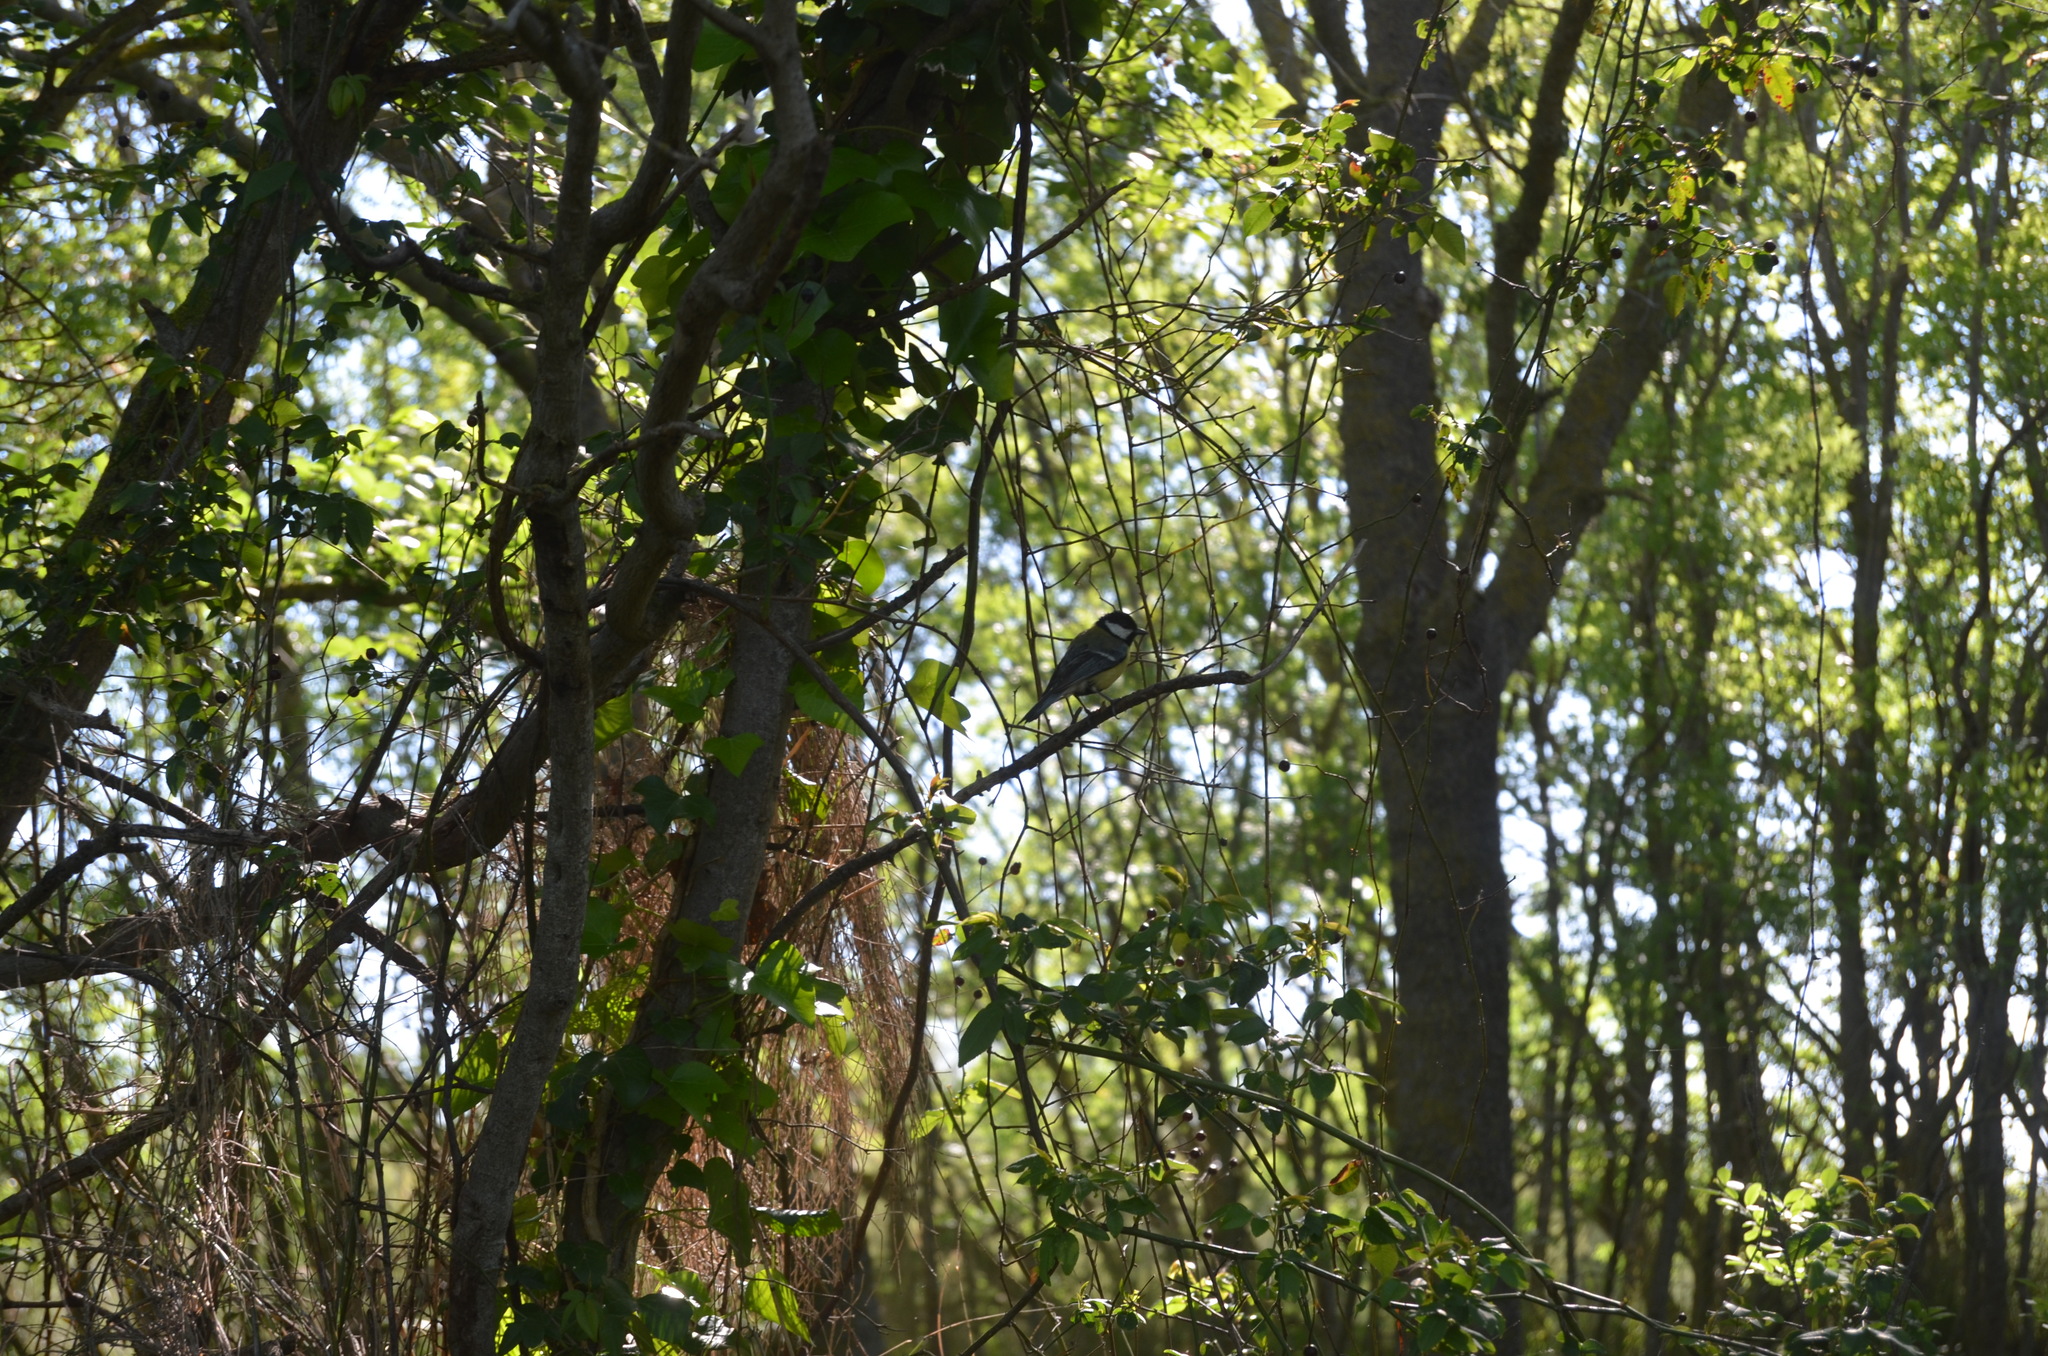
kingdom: Animalia
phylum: Chordata
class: Aves
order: Passeriformes
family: Paridae
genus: Parus
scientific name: Parus major
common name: Great tit
